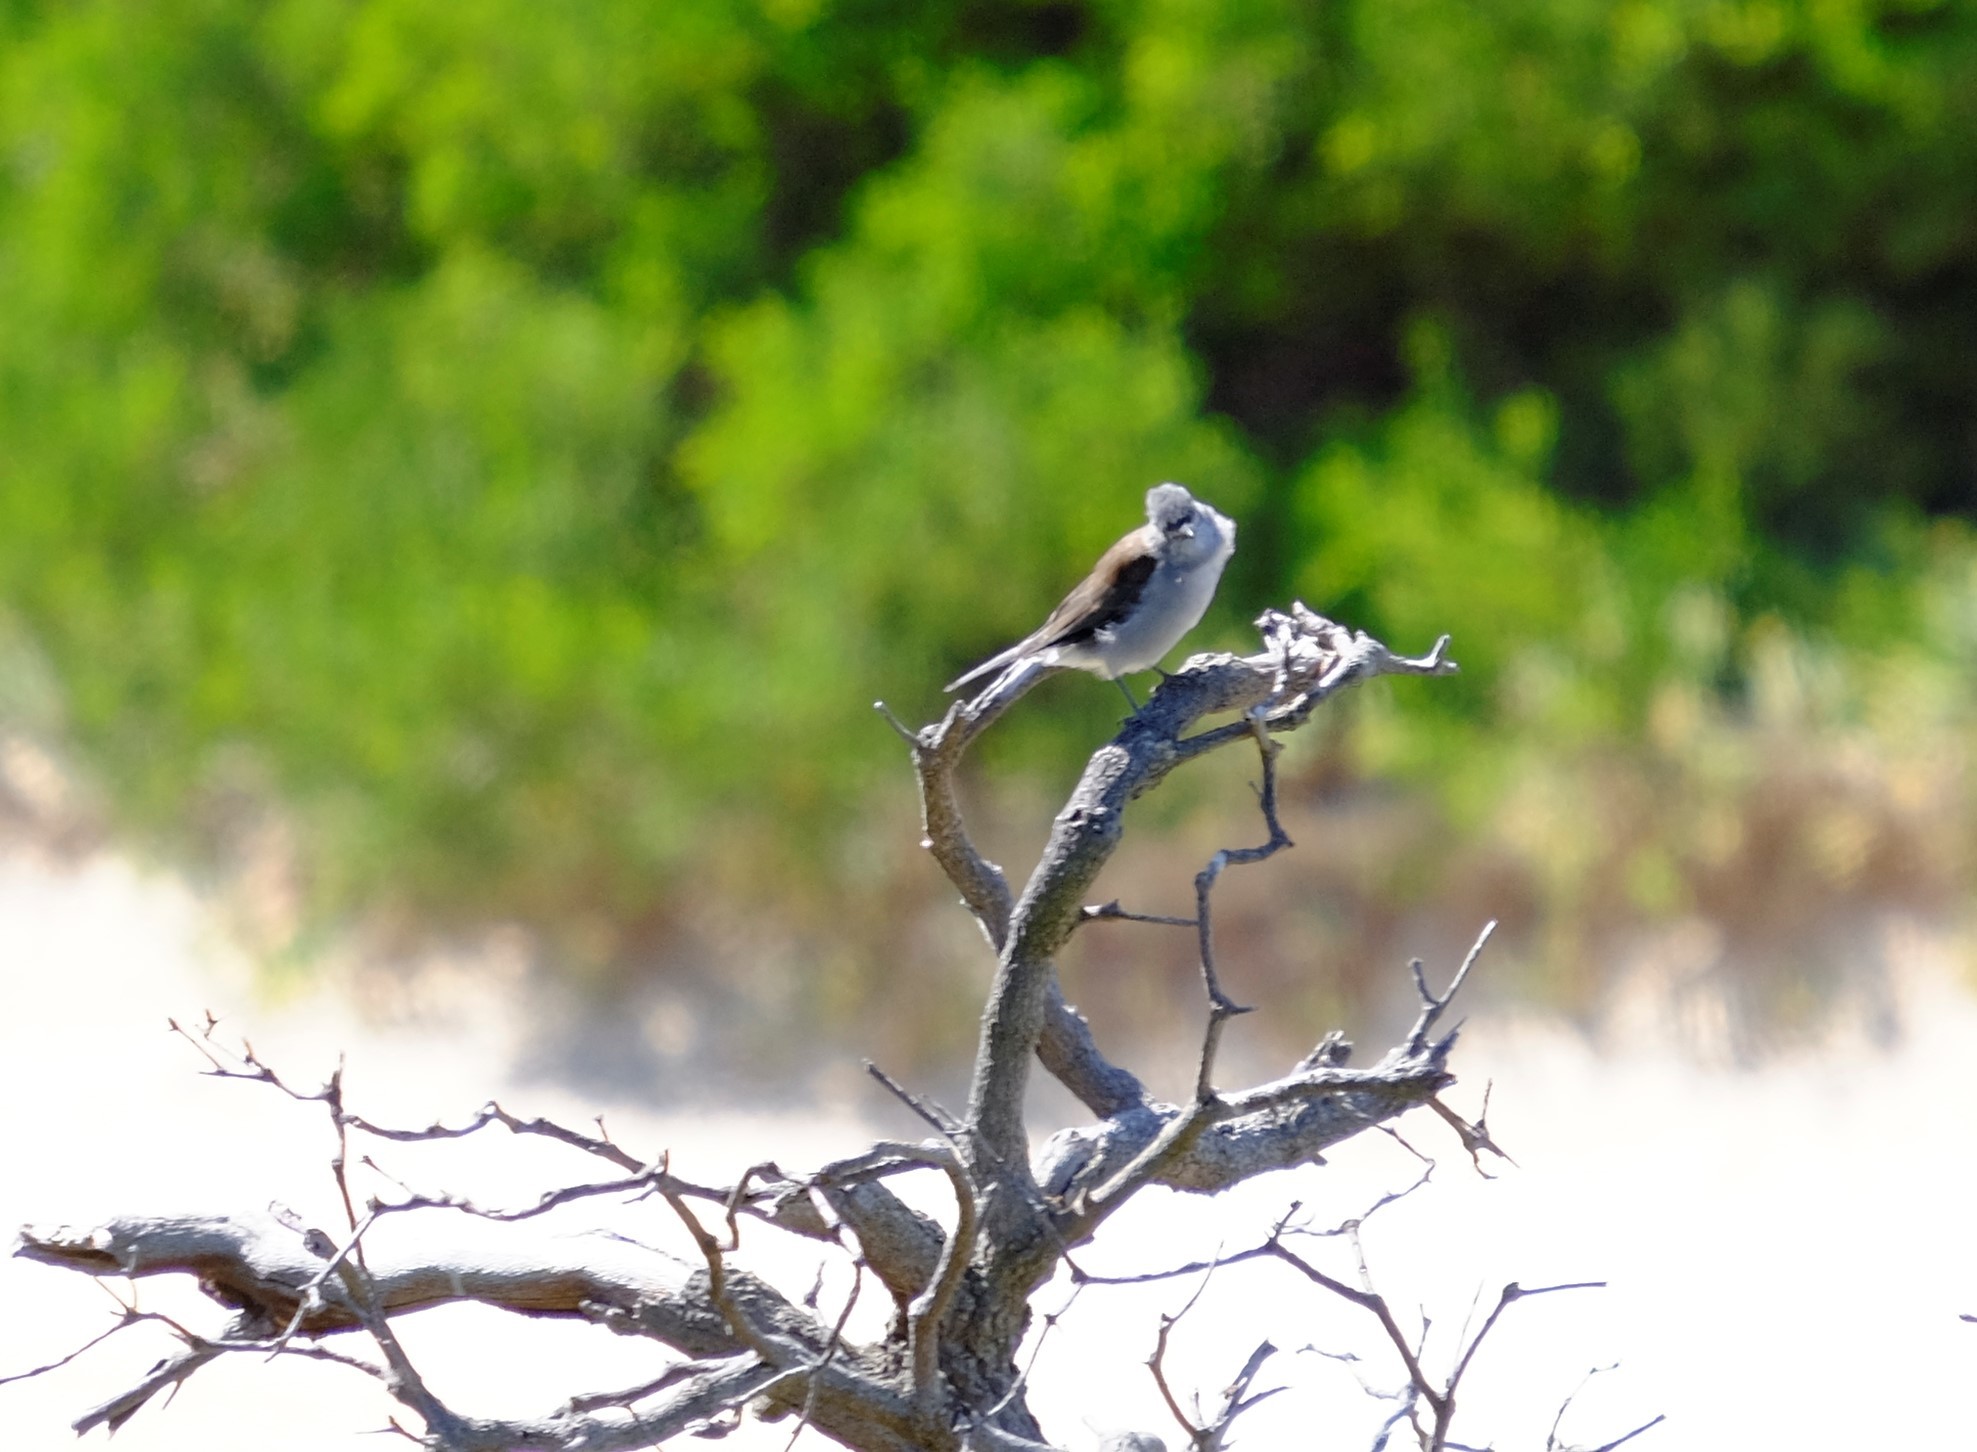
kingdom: Animalia
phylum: Chordata
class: Aves
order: Passeriformes
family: Pachycephalidae
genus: Colluricincla
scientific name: Colluricincla harmonica
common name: Grey shrikethrush
